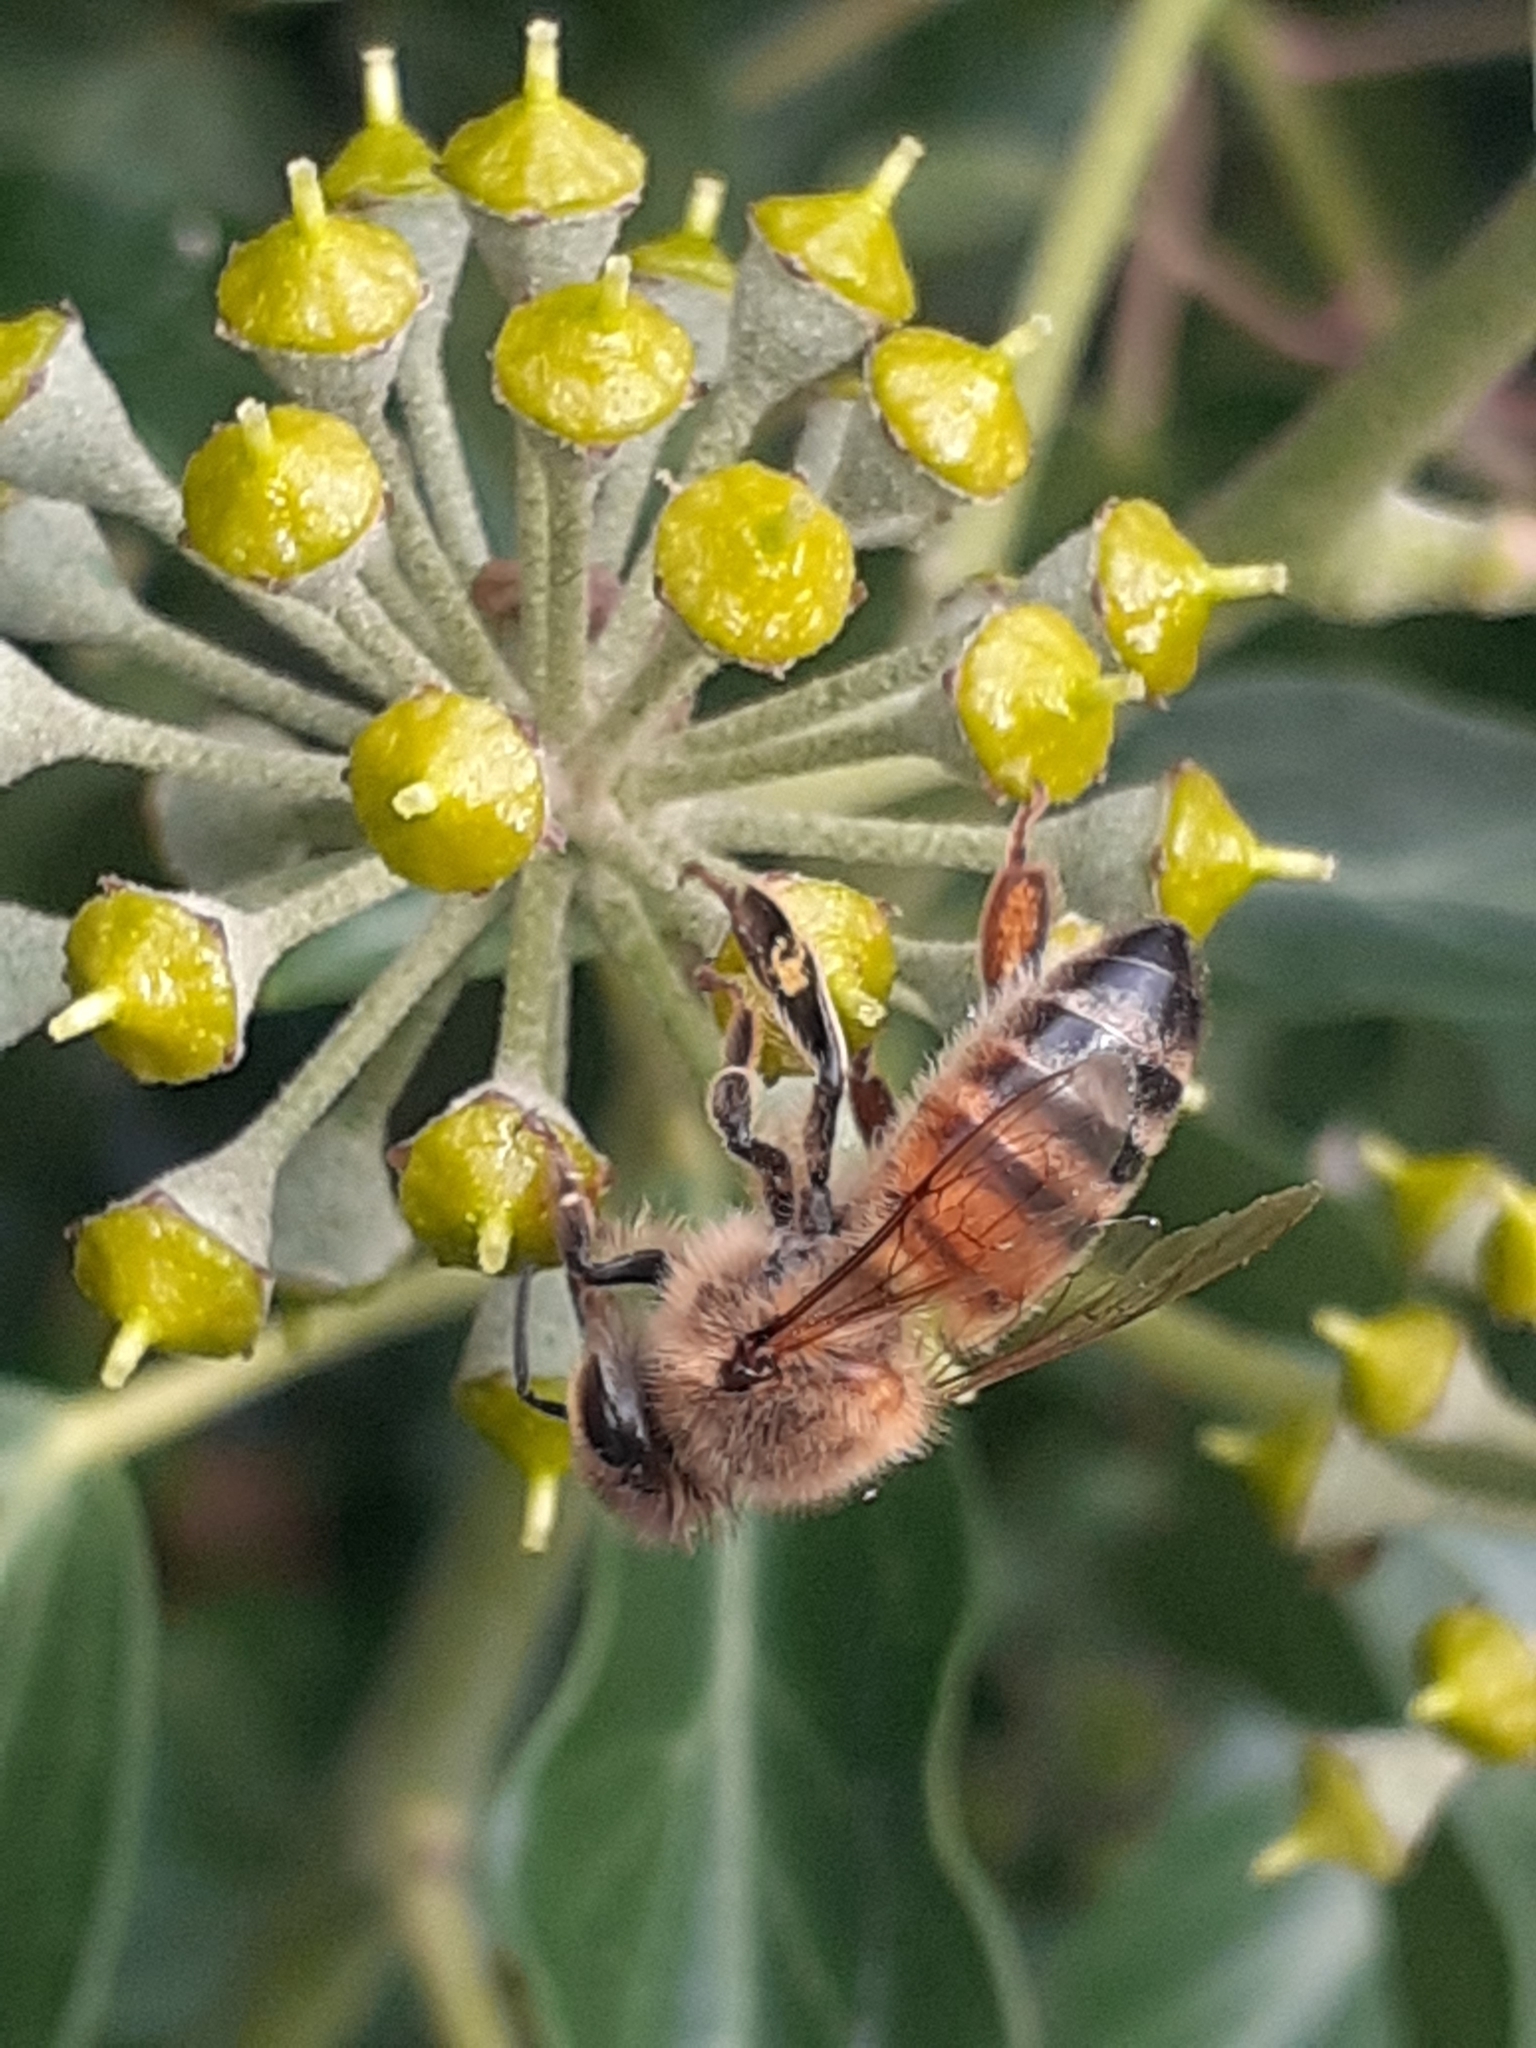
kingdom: Animalia
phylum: Arthropoda
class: Insecta
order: Hymenoptera
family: Apidae
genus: Apis
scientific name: Apis mellifera
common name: Honey bee
